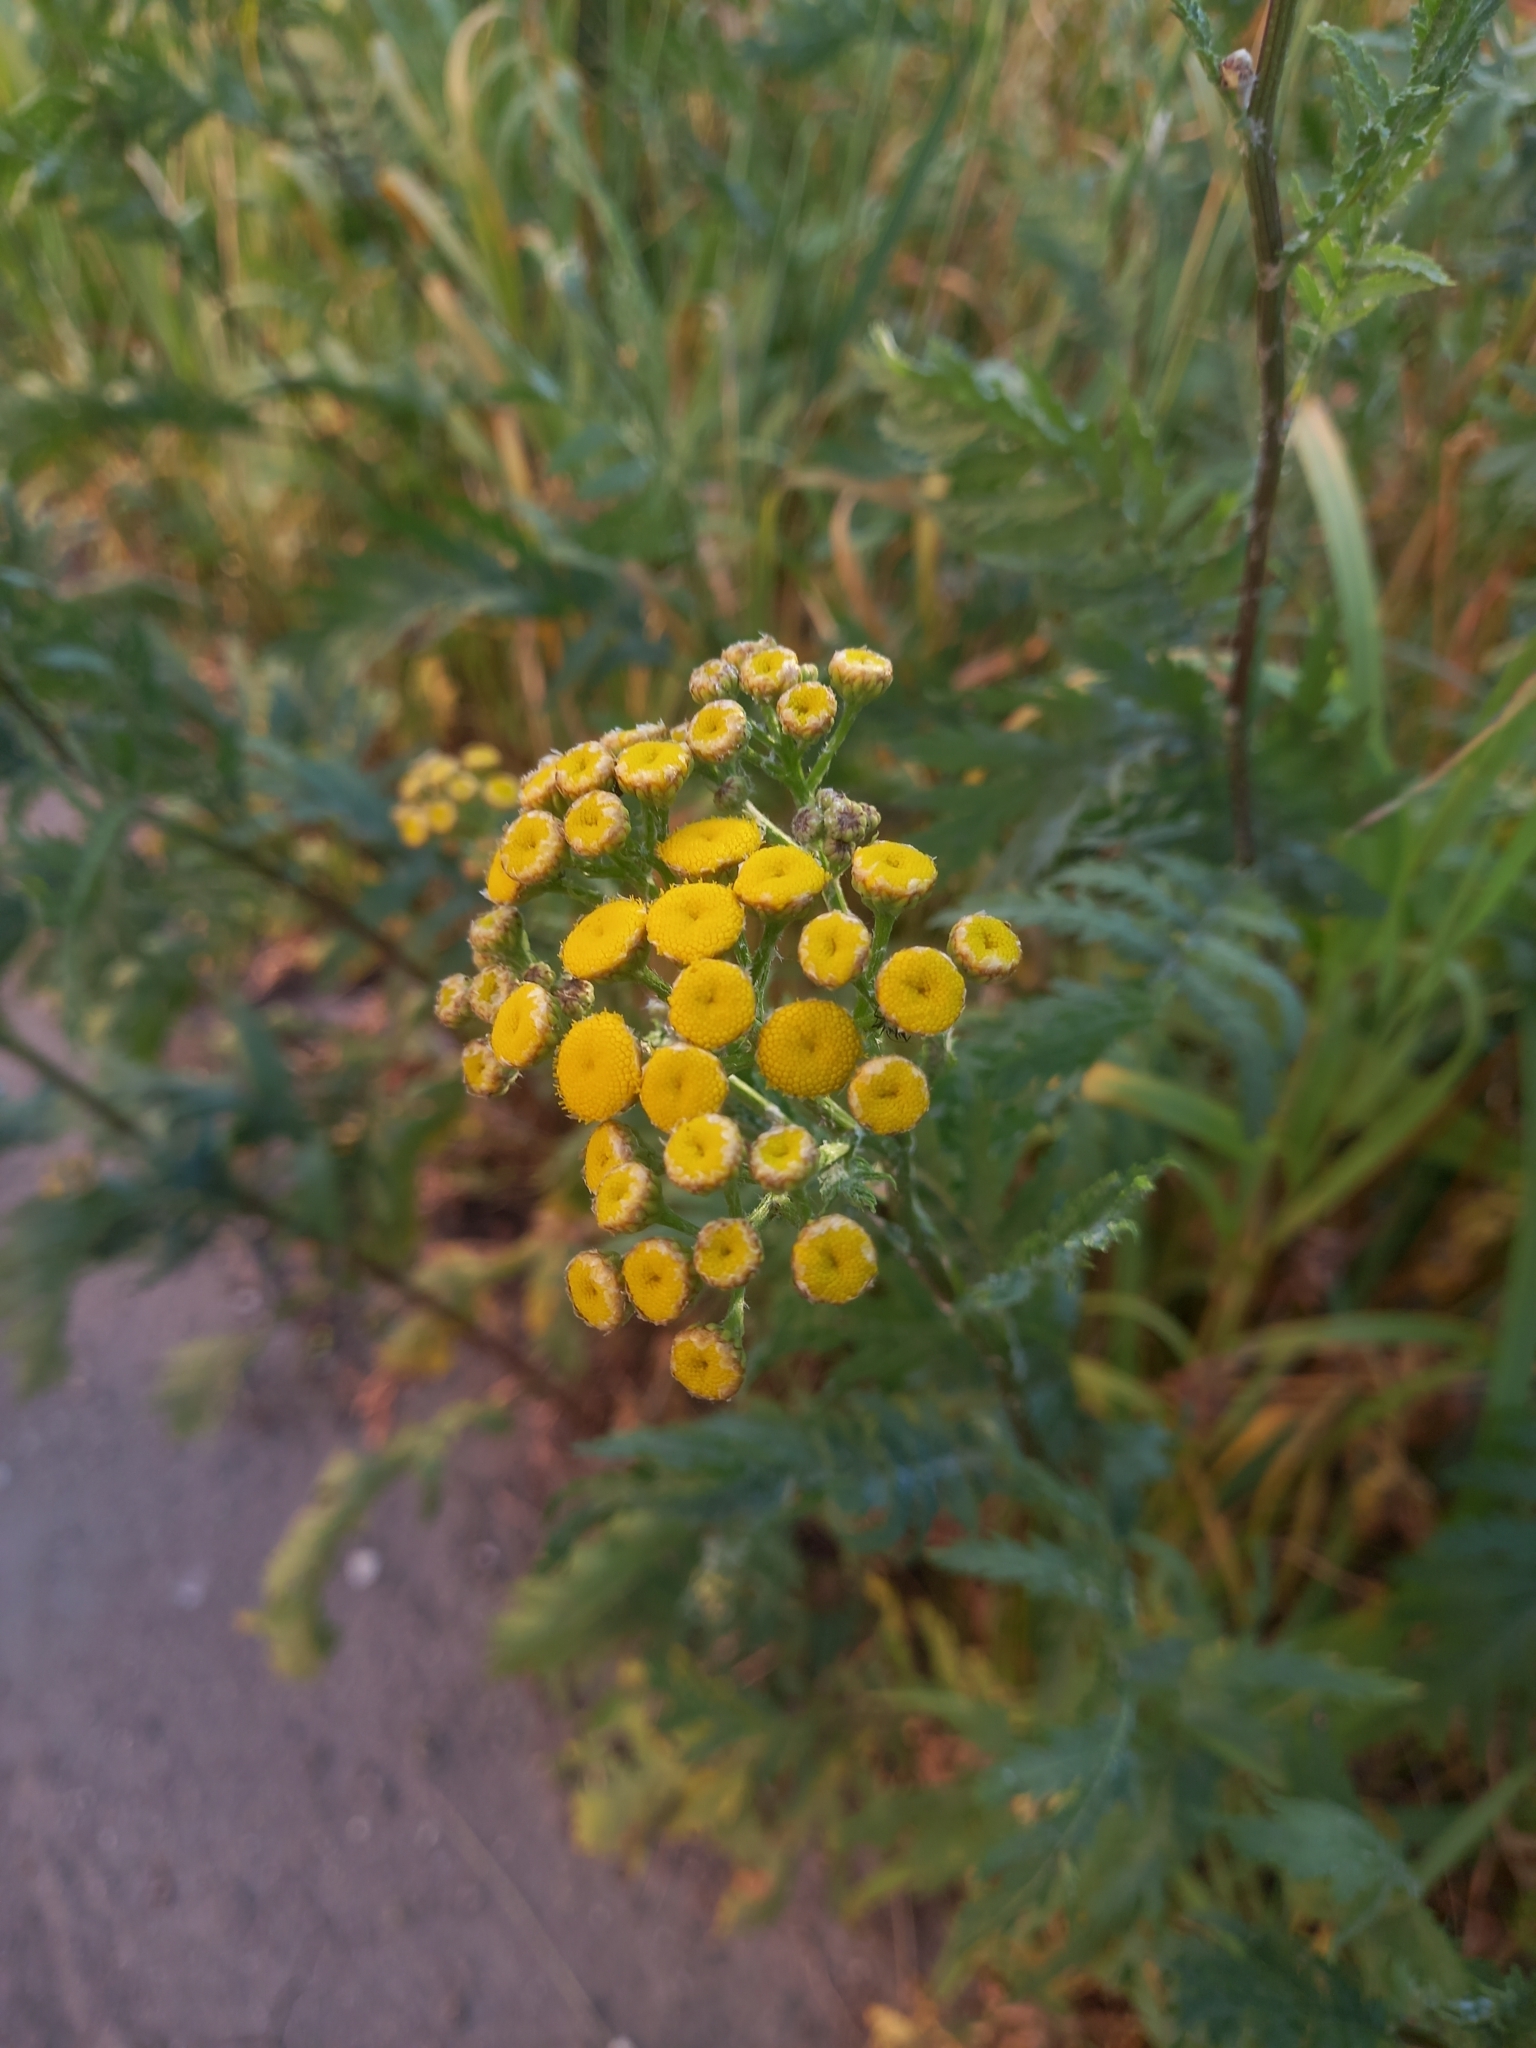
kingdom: Plantae
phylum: Tracheophyta
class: Magnoliopsida
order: Asterales
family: Asteraceae
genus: Tanacetum
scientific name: Tanacetum vulgare
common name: Common tansy
